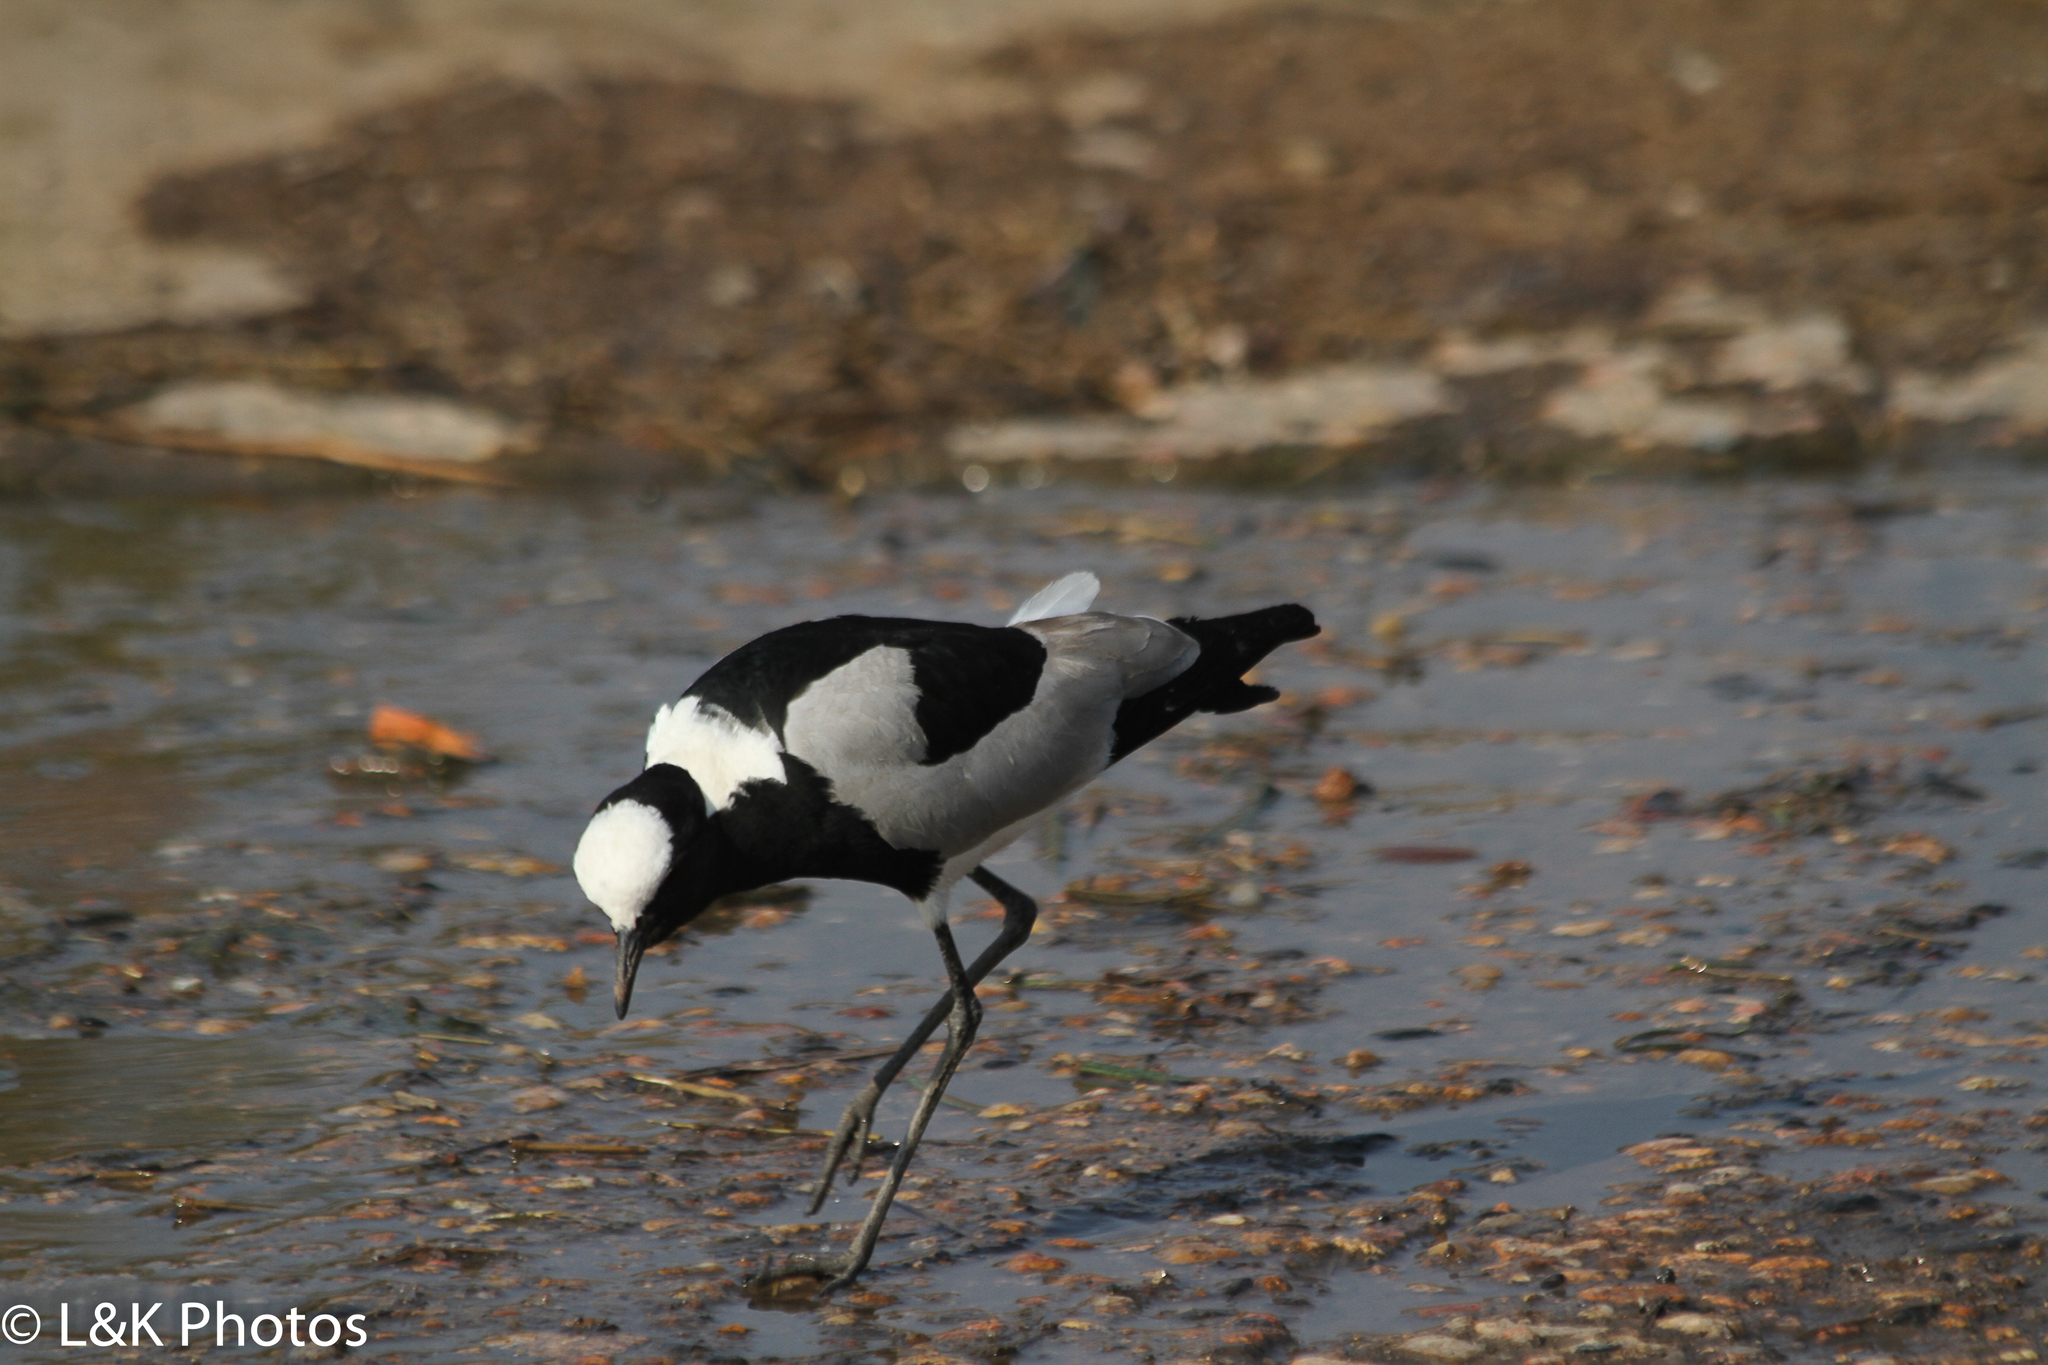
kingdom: Animalia
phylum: Chordata
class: Aves
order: Charadriiformes
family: Charadriidae
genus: Vanellus
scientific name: Vanellus armatus
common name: Blacksmith lapwing
